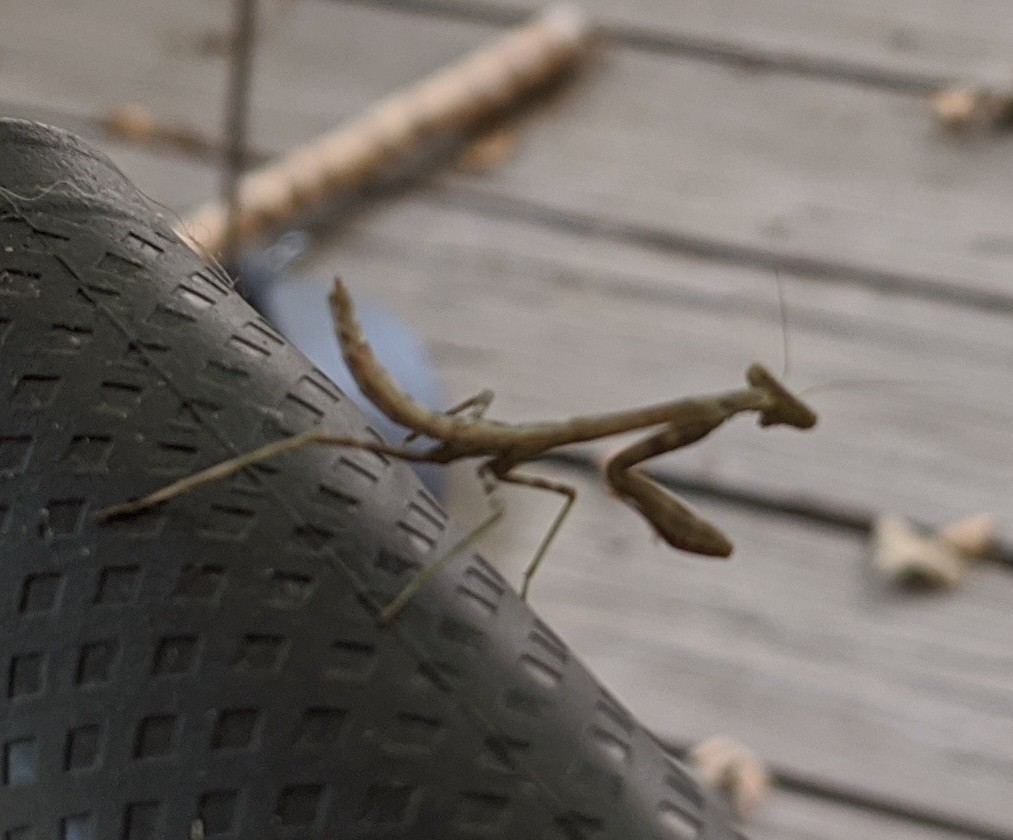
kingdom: Animalia
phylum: Arthropoda
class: Insecta
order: Mantodea
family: Mantidae
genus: Stagmomantis
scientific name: Stagmomantis carolina
